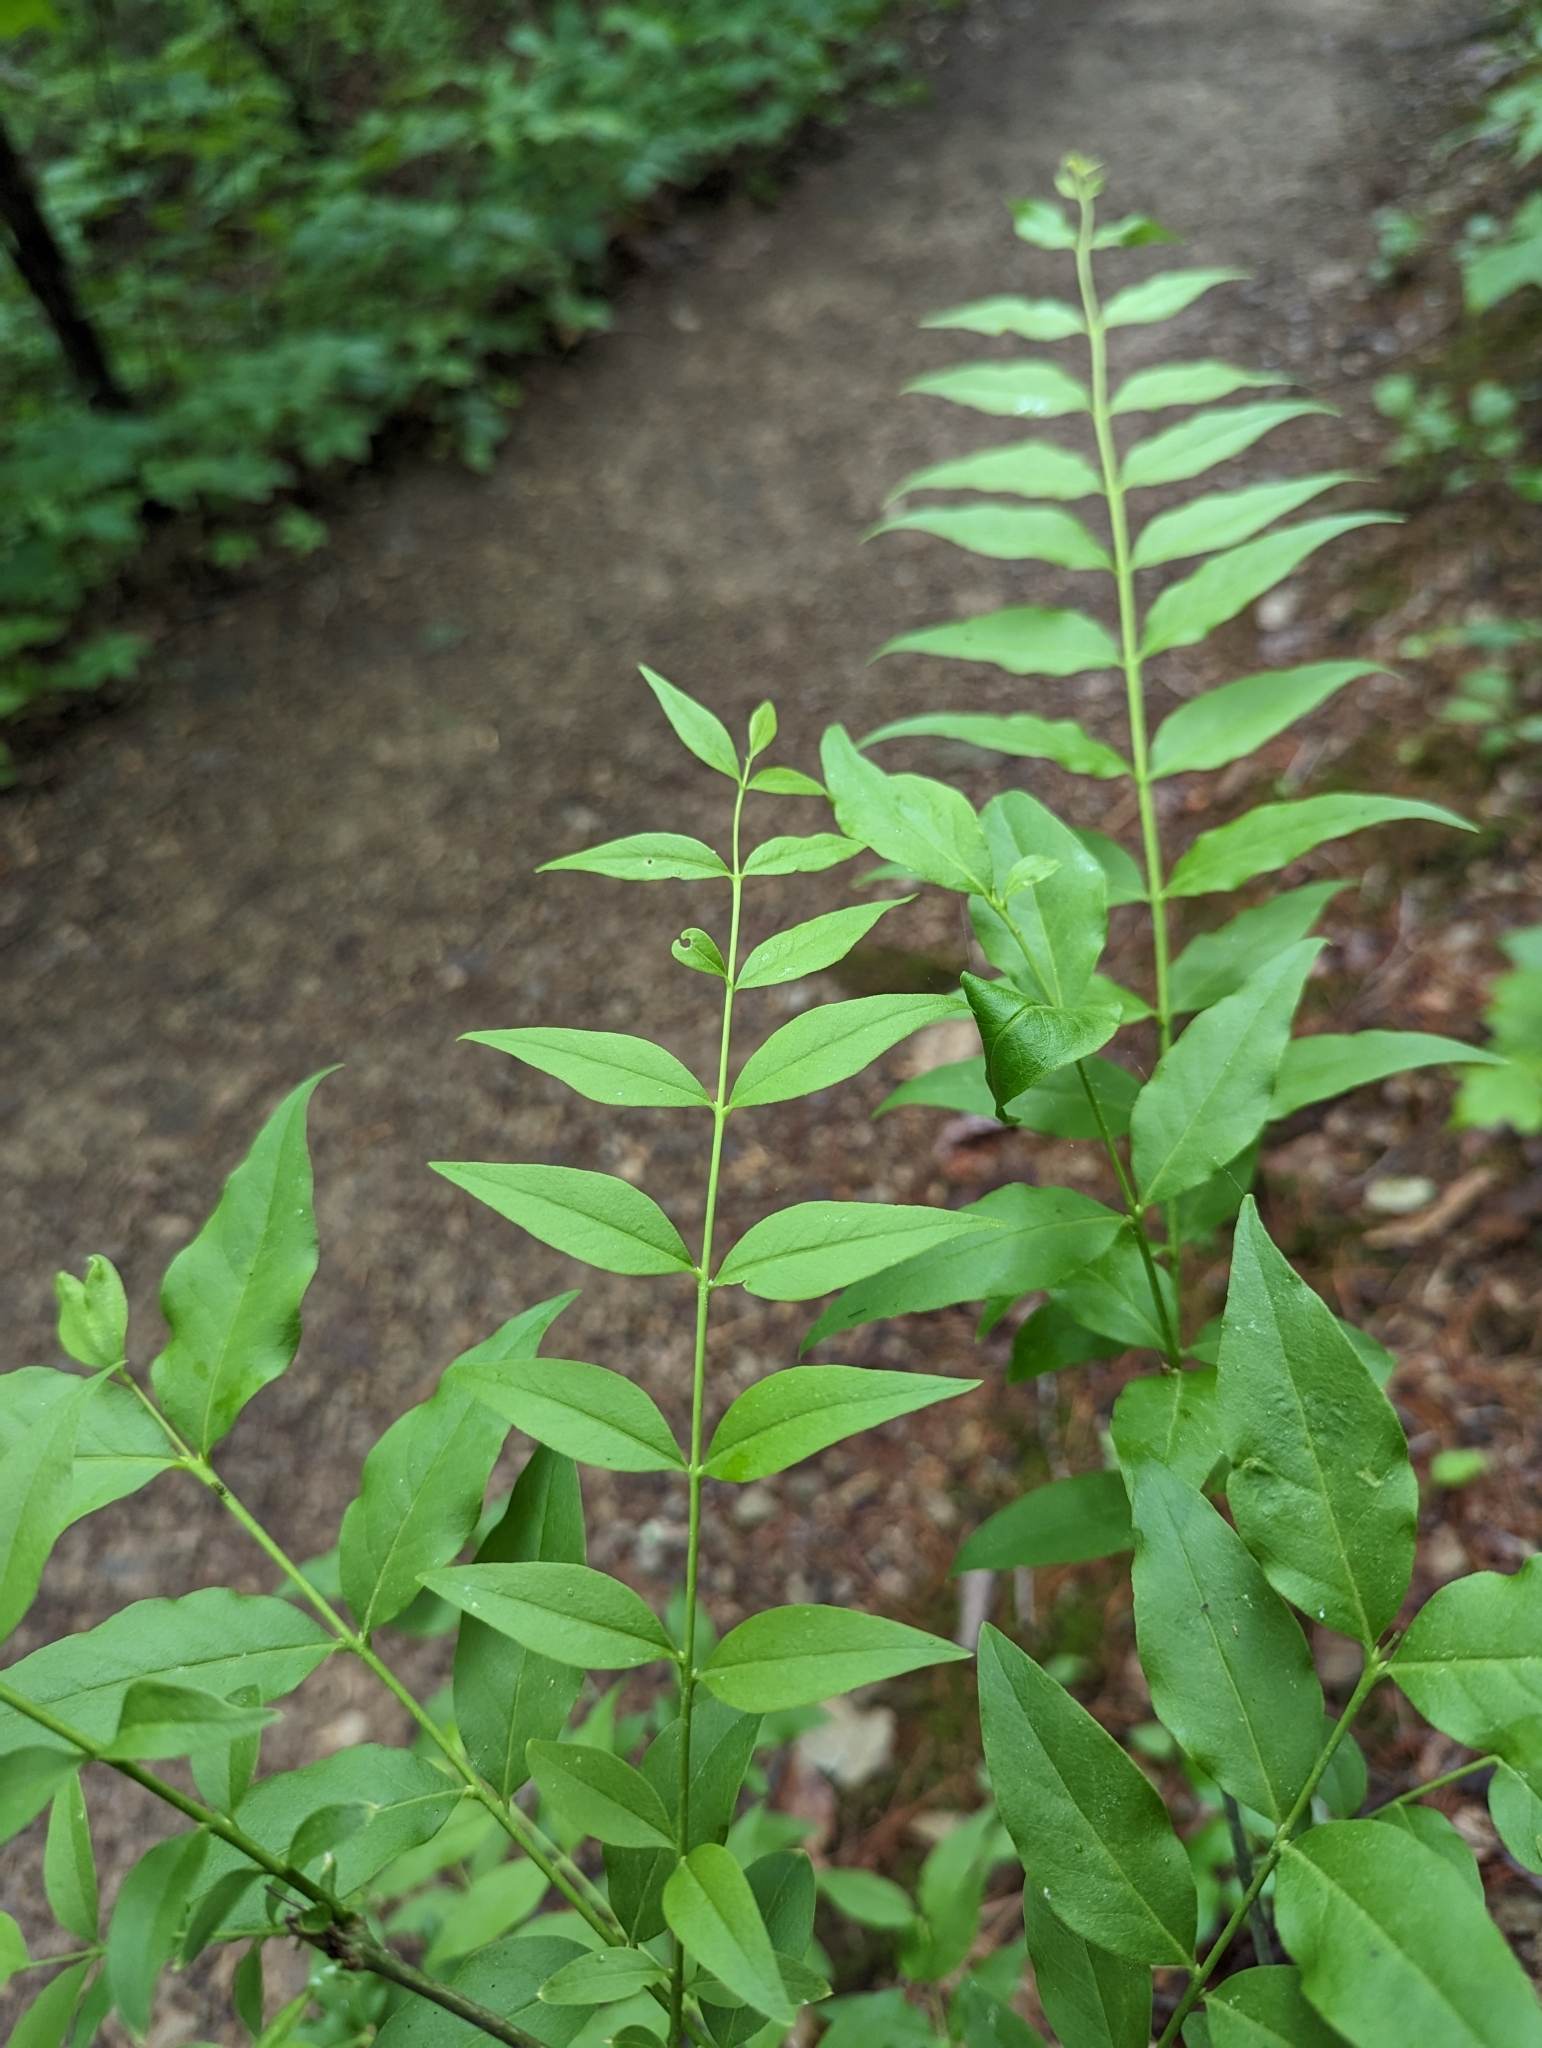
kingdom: Plantae
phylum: Tracheophyta
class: Magnoliopsida
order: Santalales
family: Thesiaceae
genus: Buckleya
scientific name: Buckleya distichophylla
